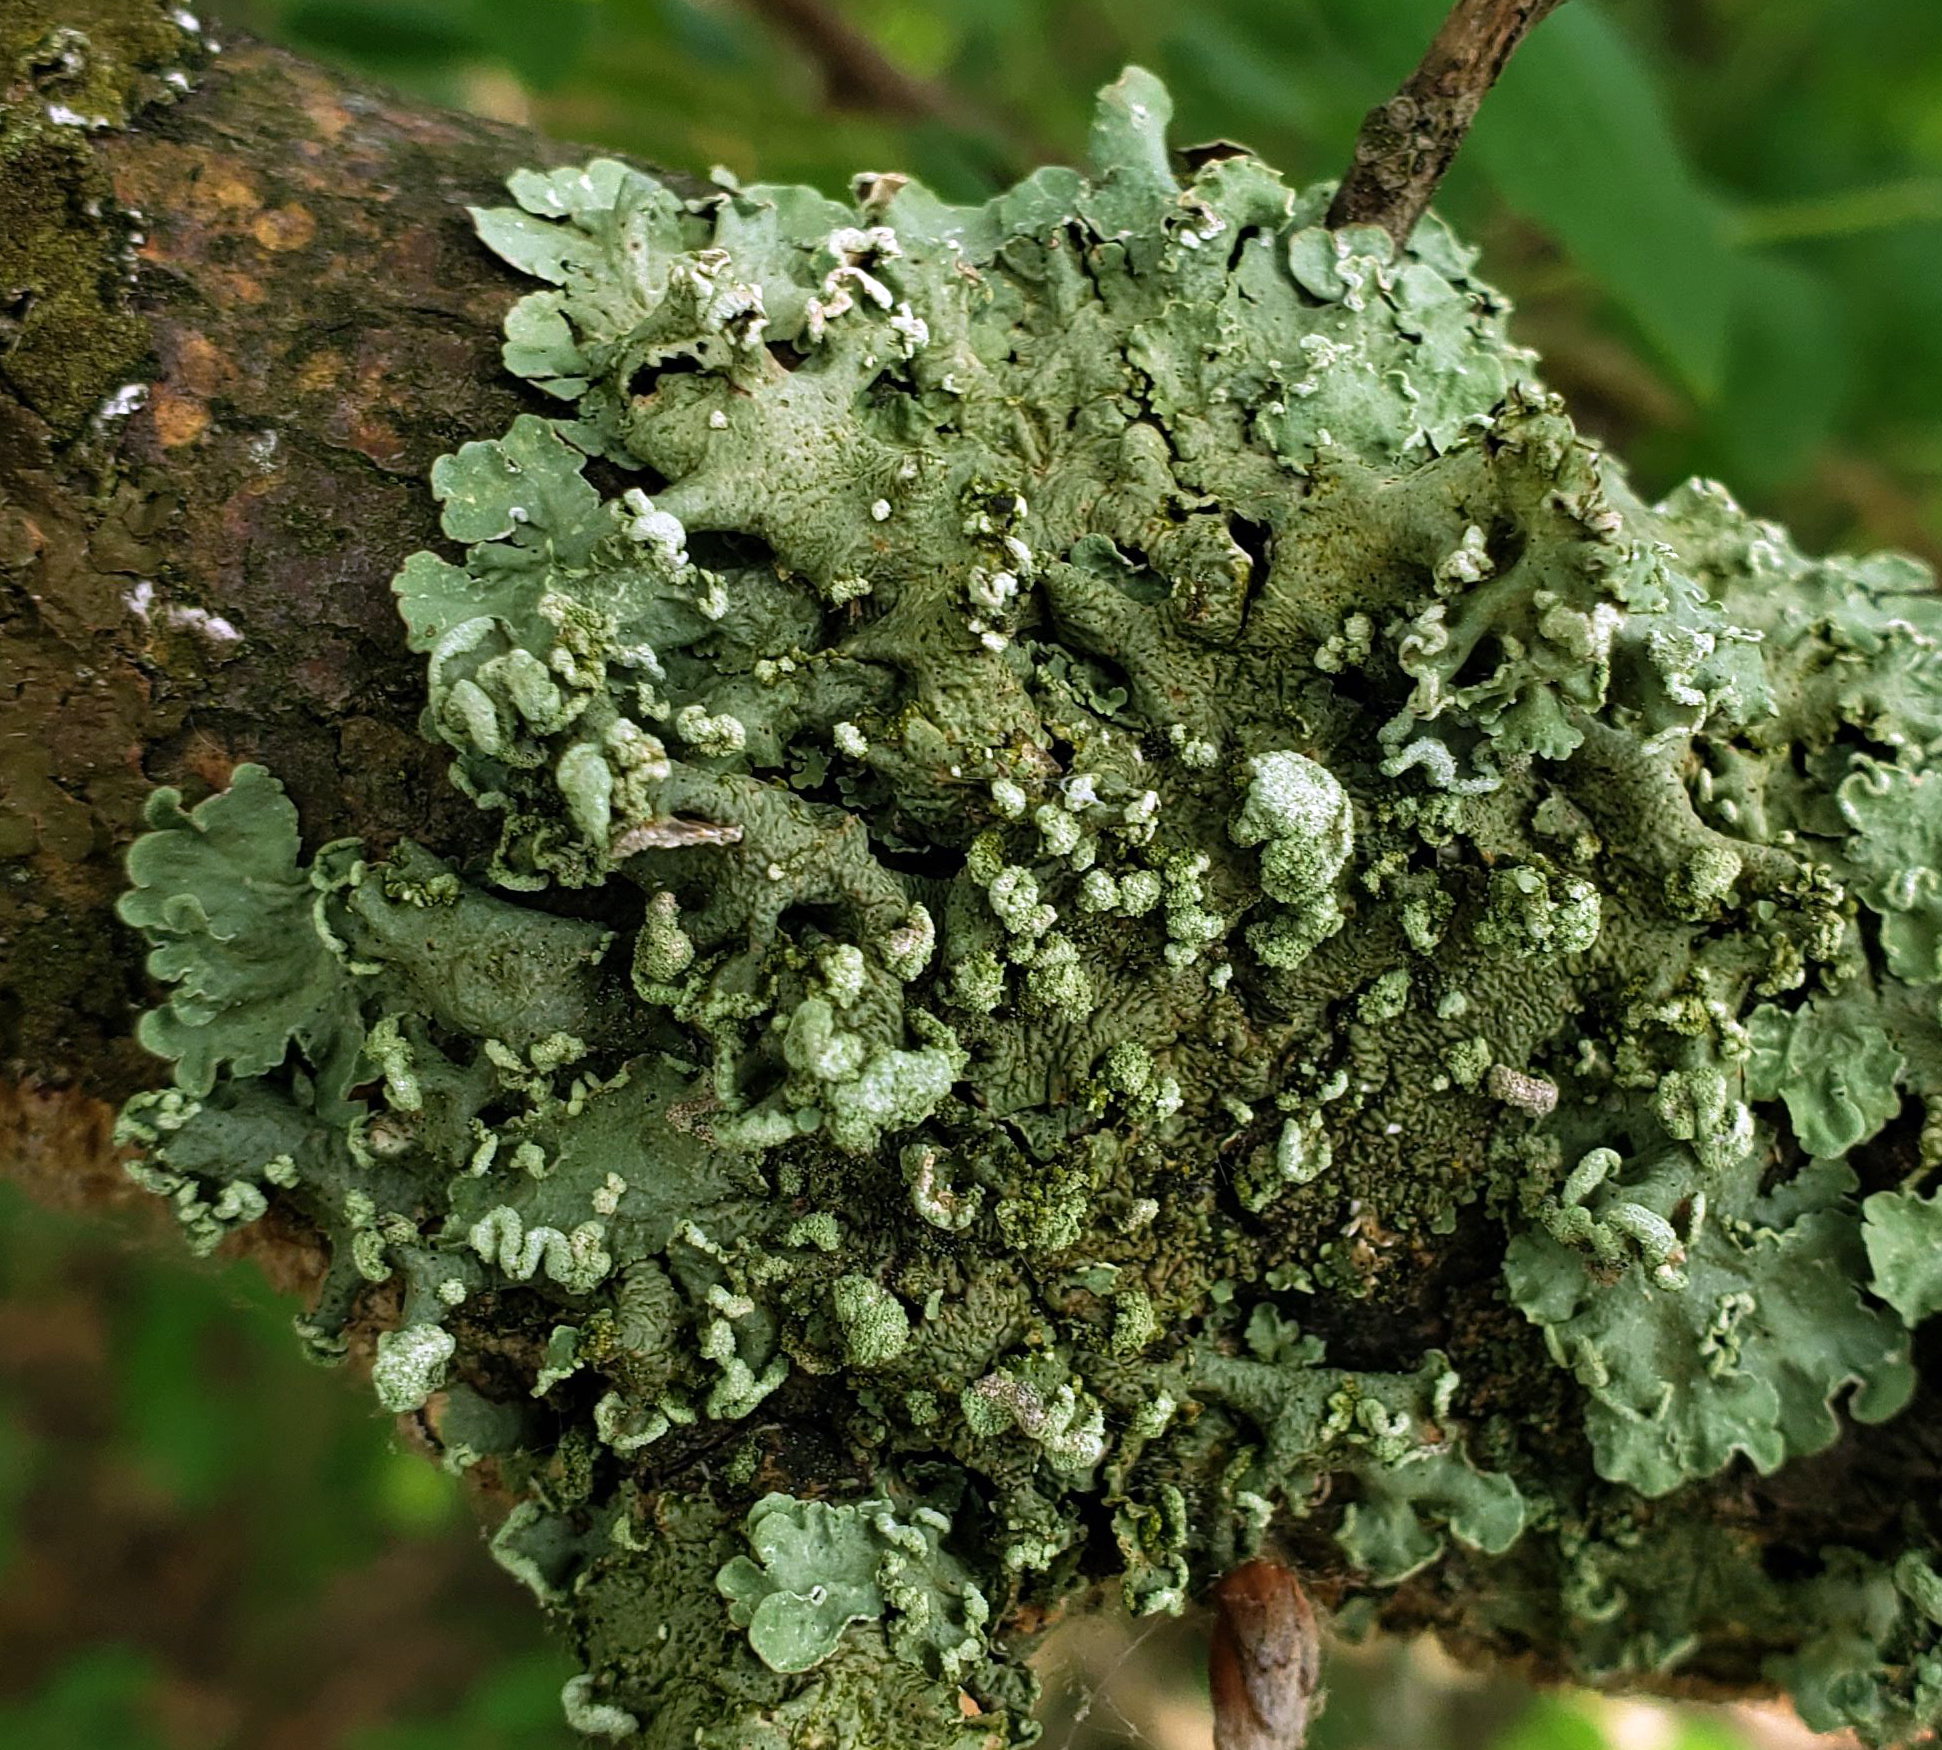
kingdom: Fungi
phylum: Ascomycota
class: Lecanoromycetes
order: Lecanorales
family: Parmeliaceae
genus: Flavopunctelia
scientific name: Flavopunctelia soredica
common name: Powder-edged speckled greenshield
